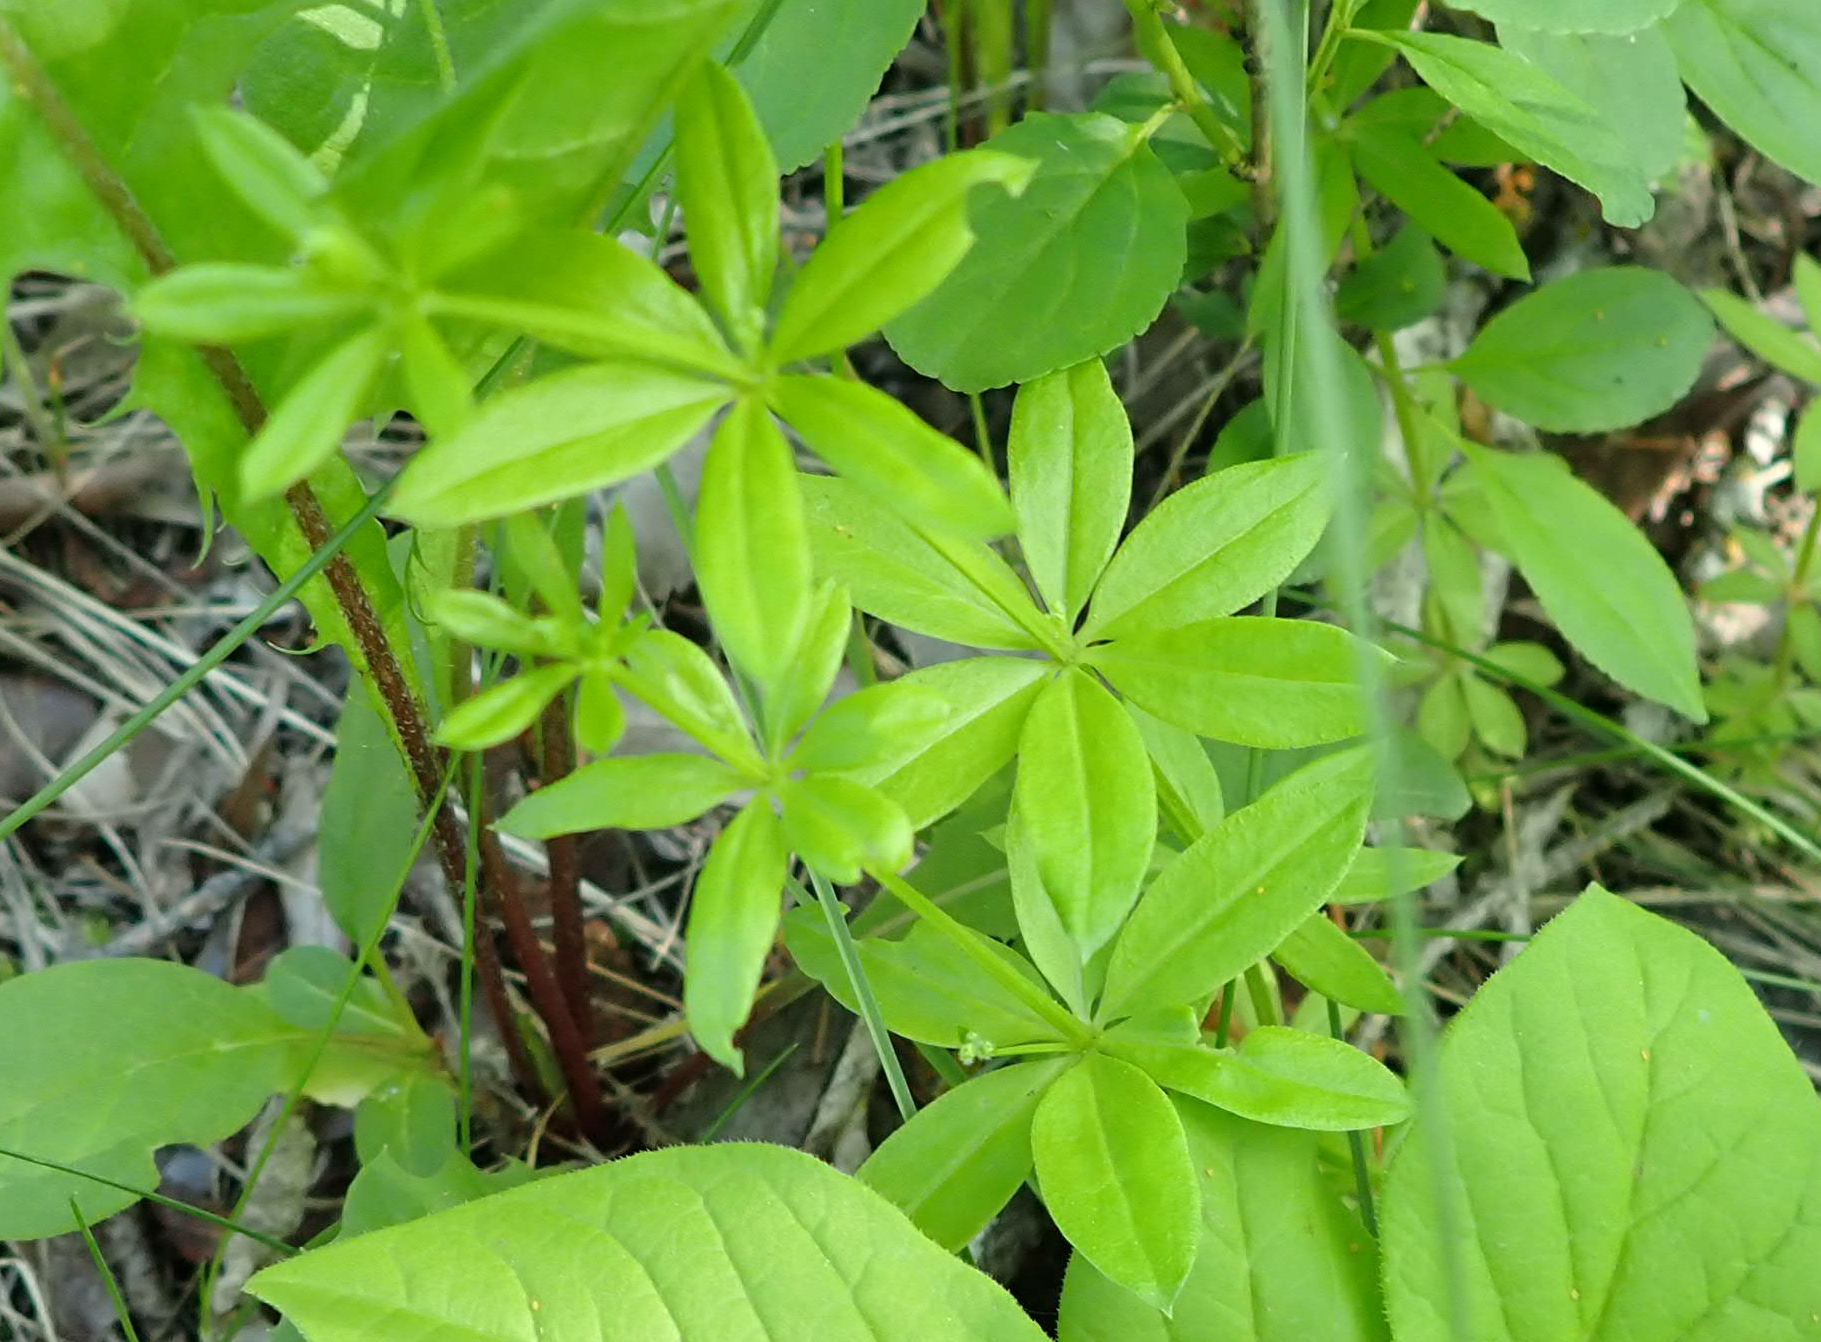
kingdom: Plantae
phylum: Tracheophyta
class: Magnoliopsida
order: Gentianales
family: Rubiaceae
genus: Galium
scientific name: Galium triflorum
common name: Fragrant bedstraw
